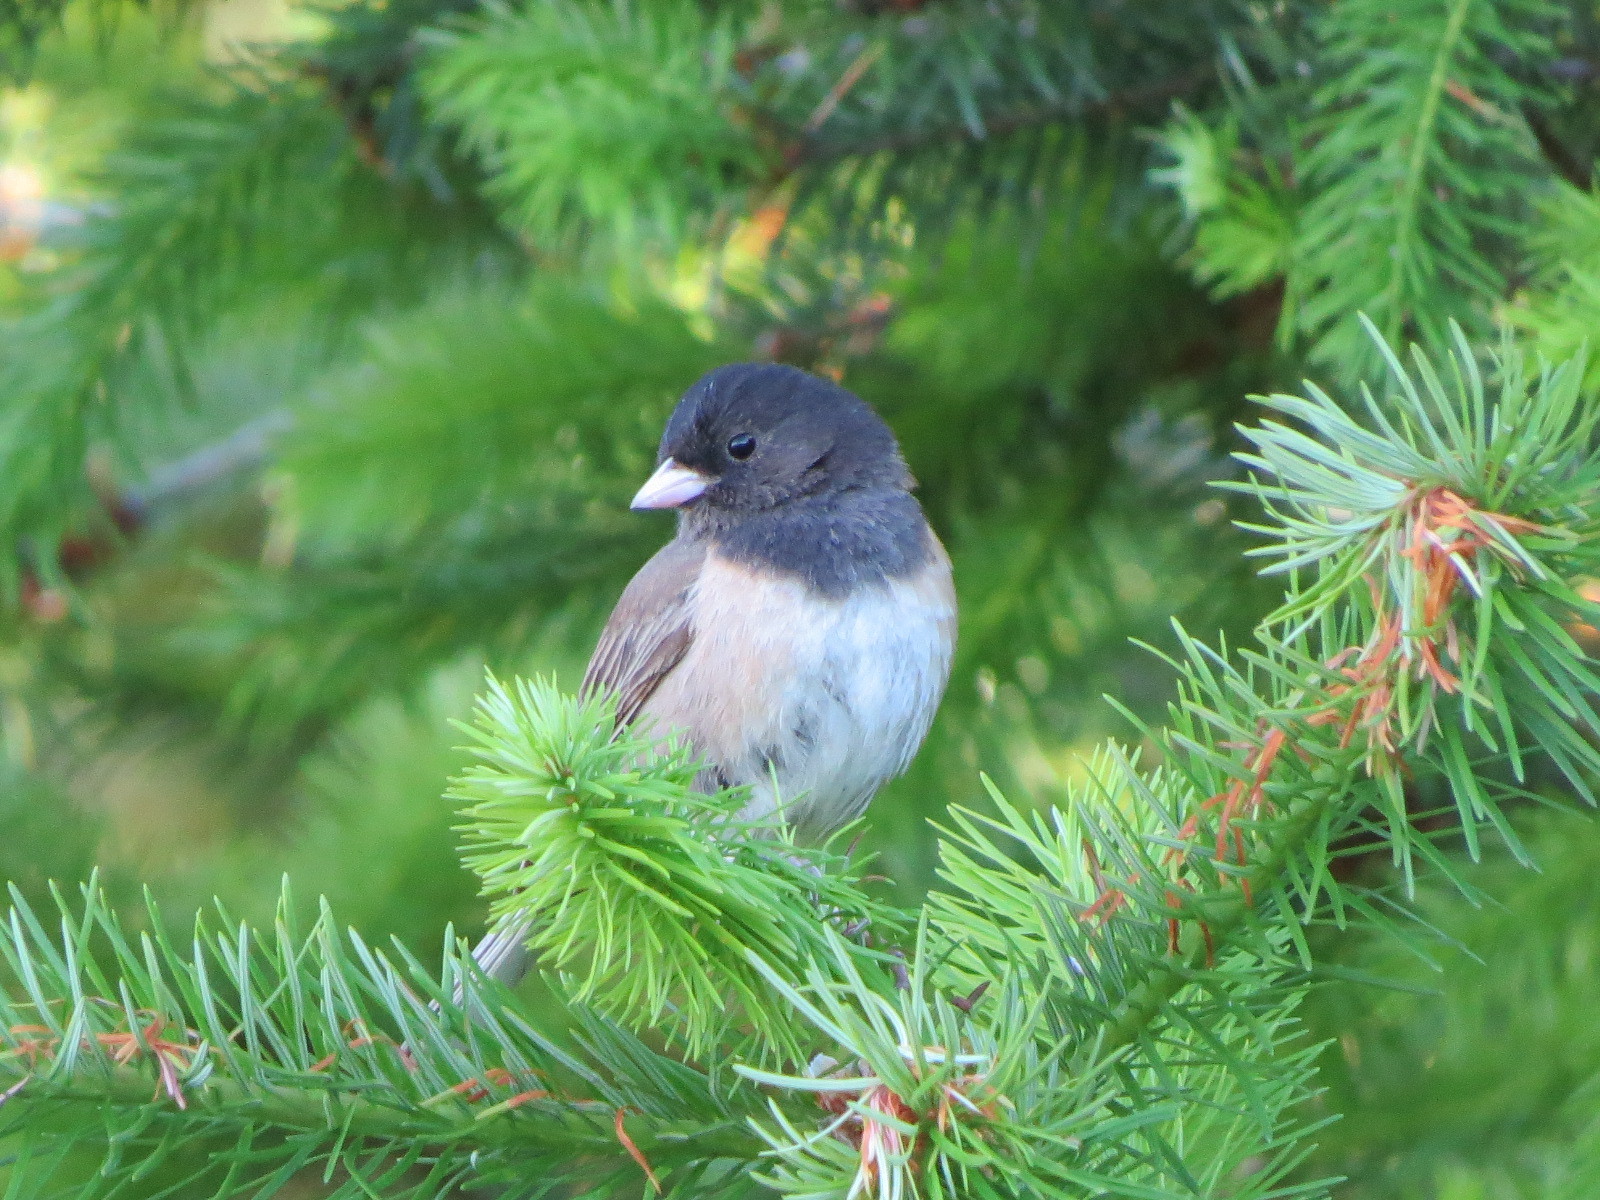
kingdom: Animalia
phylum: Chordata
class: Aves
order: Passeriformes
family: Passerellidae
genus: Junco
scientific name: Junco hyemalis
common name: Dark-eyed junco
